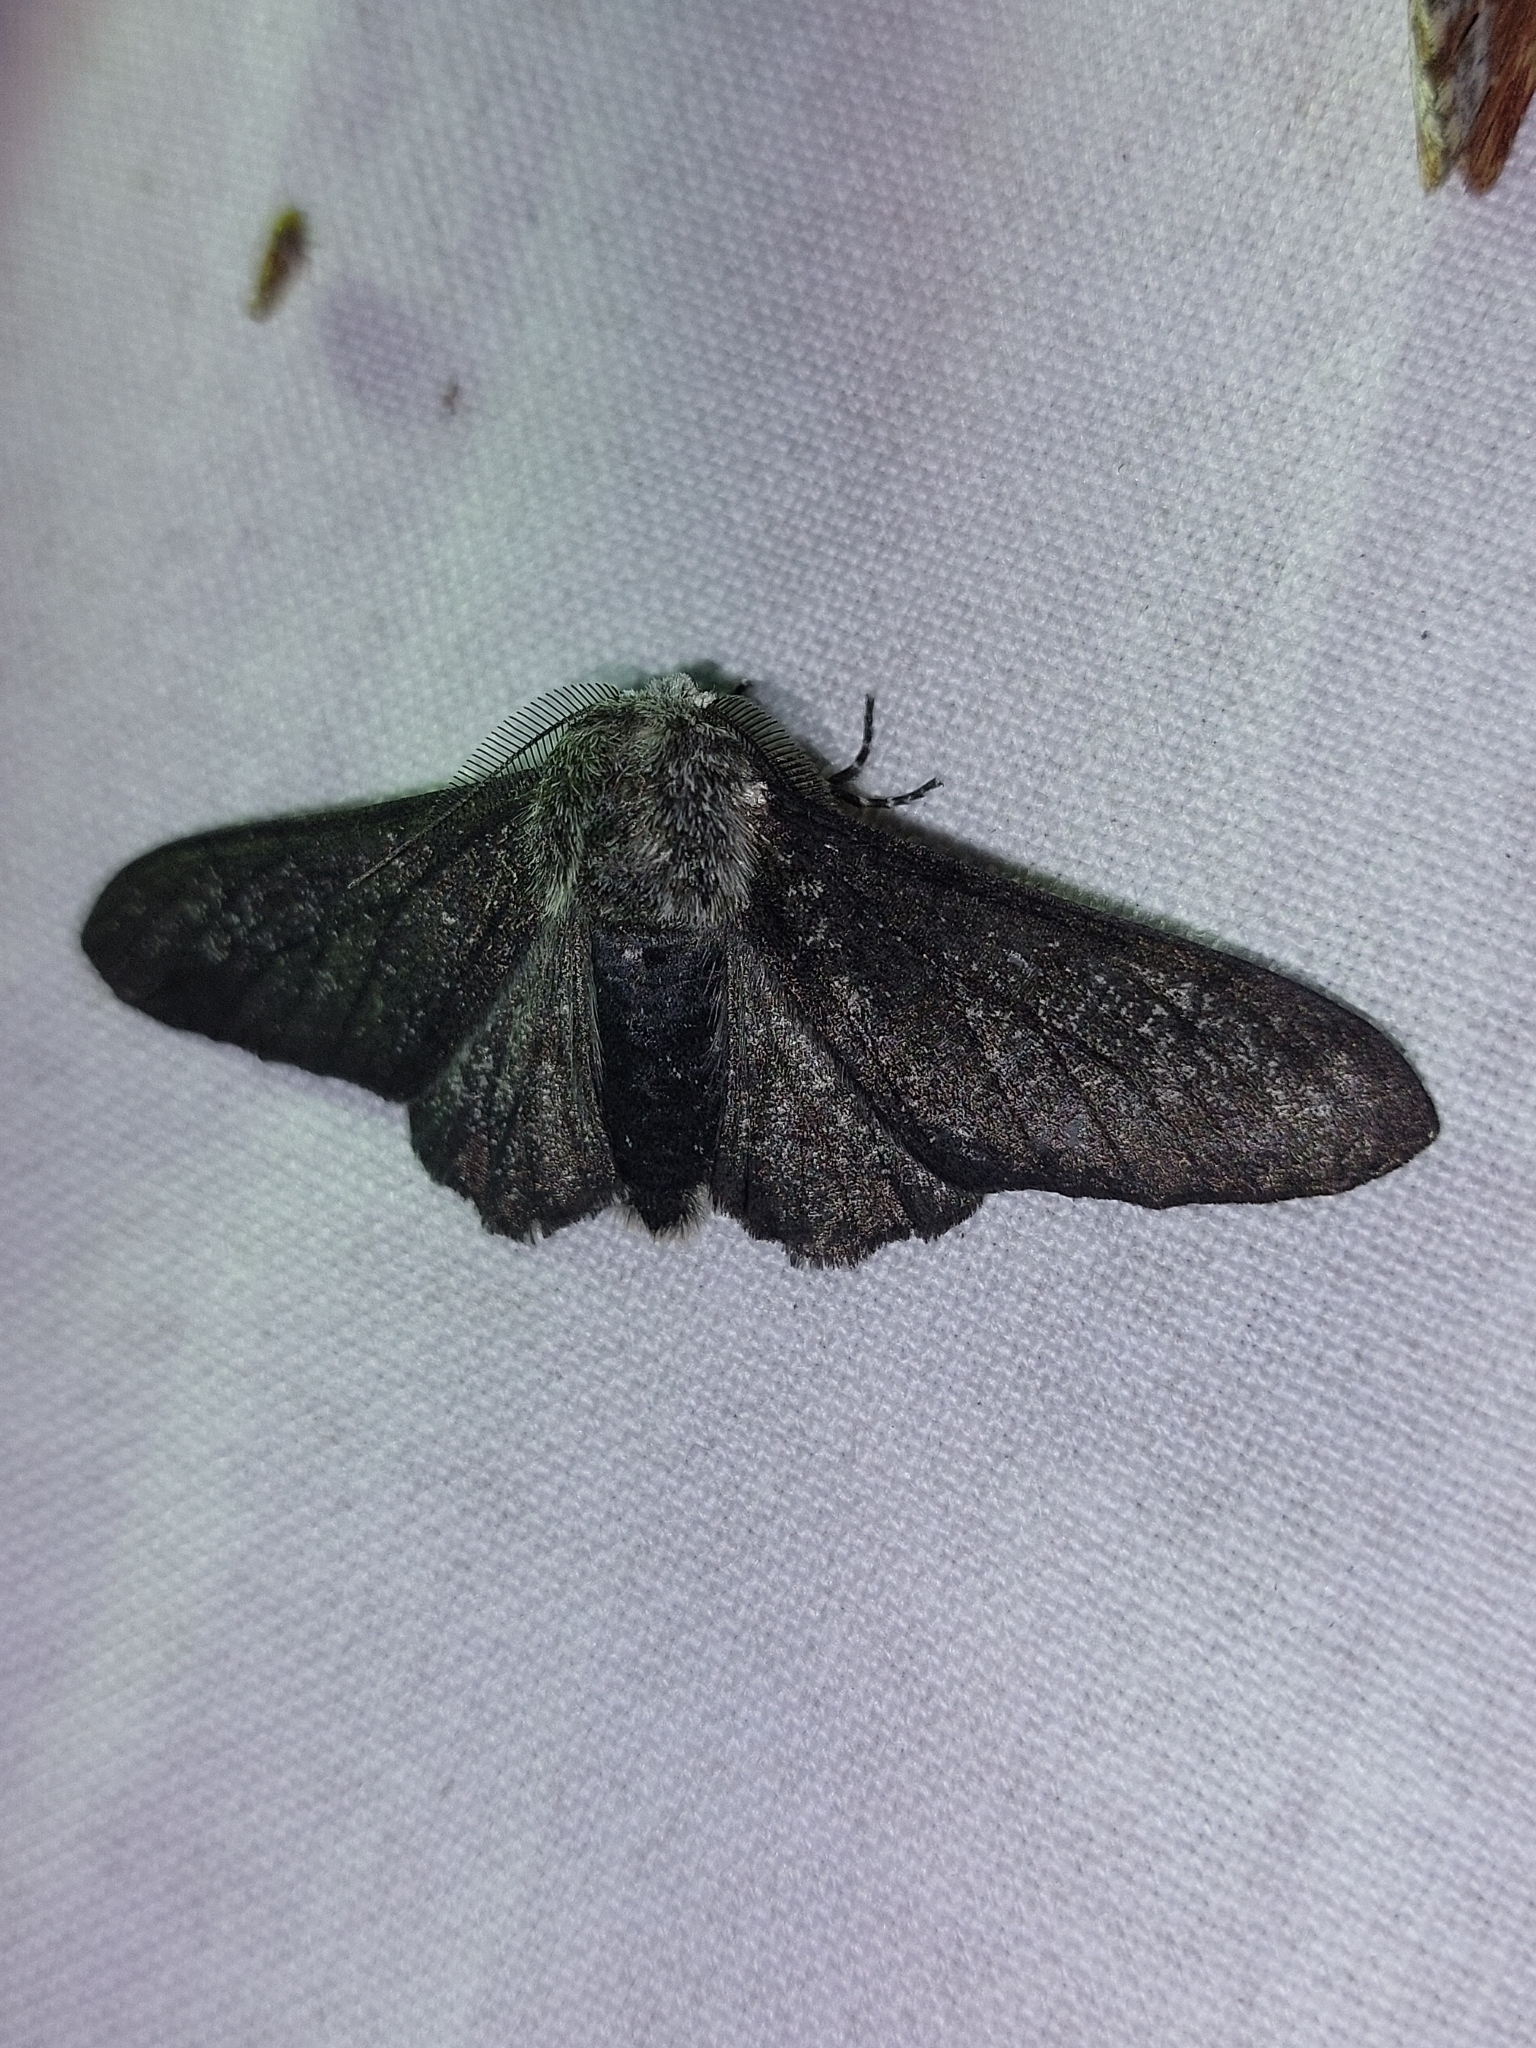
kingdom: Animalia
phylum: Arthropoda
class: Insecta
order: Lepidoptera
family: Geometridae
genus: Biston
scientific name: Biston betularia
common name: Peppered moth
